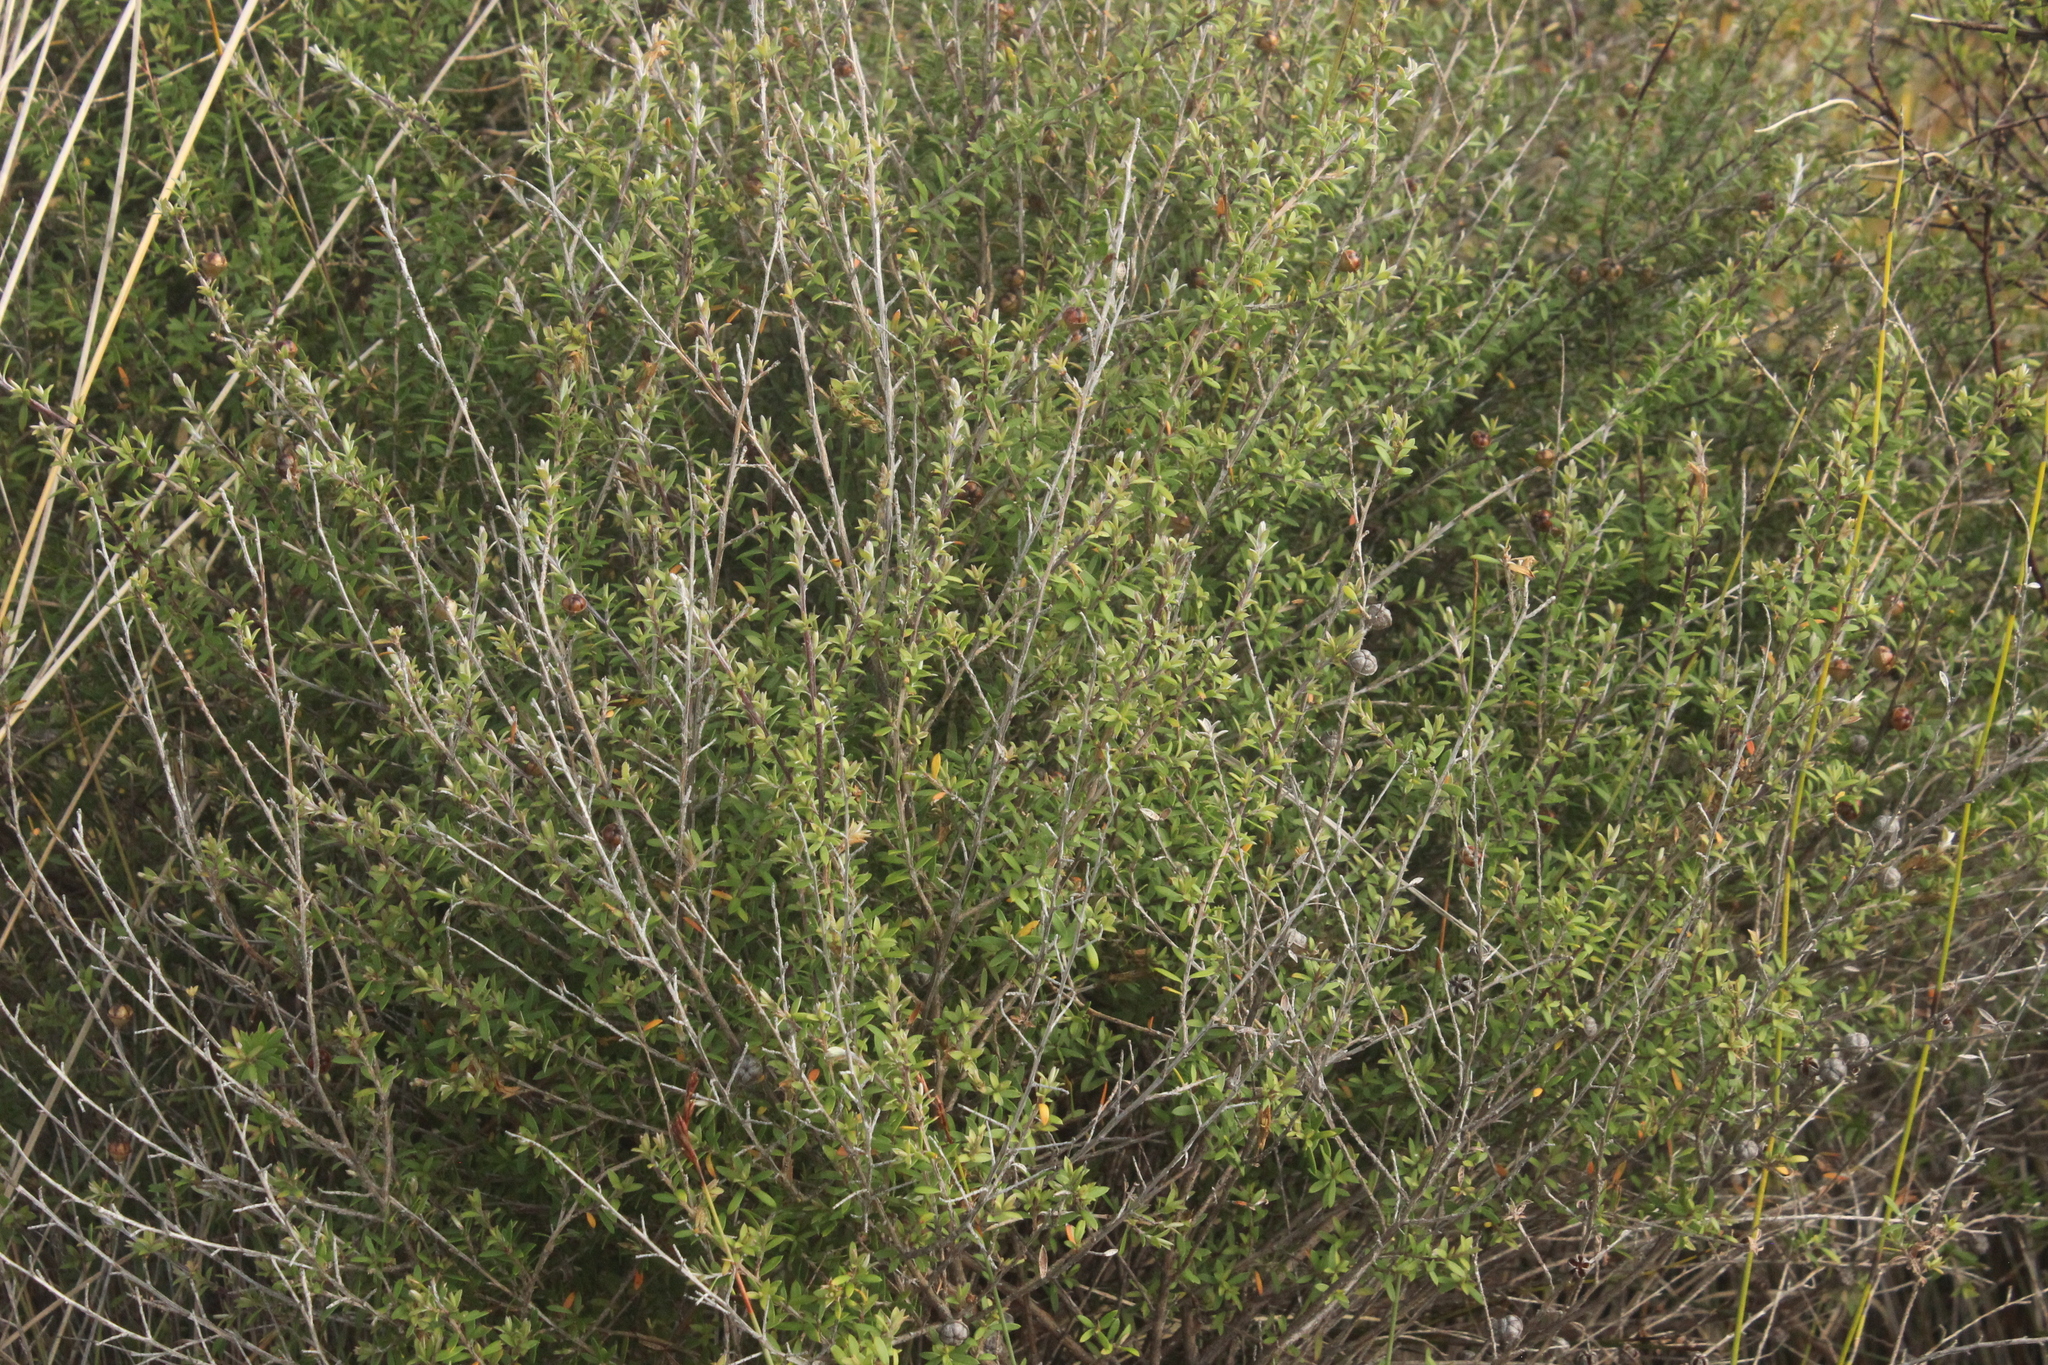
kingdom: Plantae
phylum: Tracheophyta
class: Magnoliopsida
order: Myrtales
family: Myrtaceae
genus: Leptospermum
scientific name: Leptospermum scoparium
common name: Broom tea-tree
